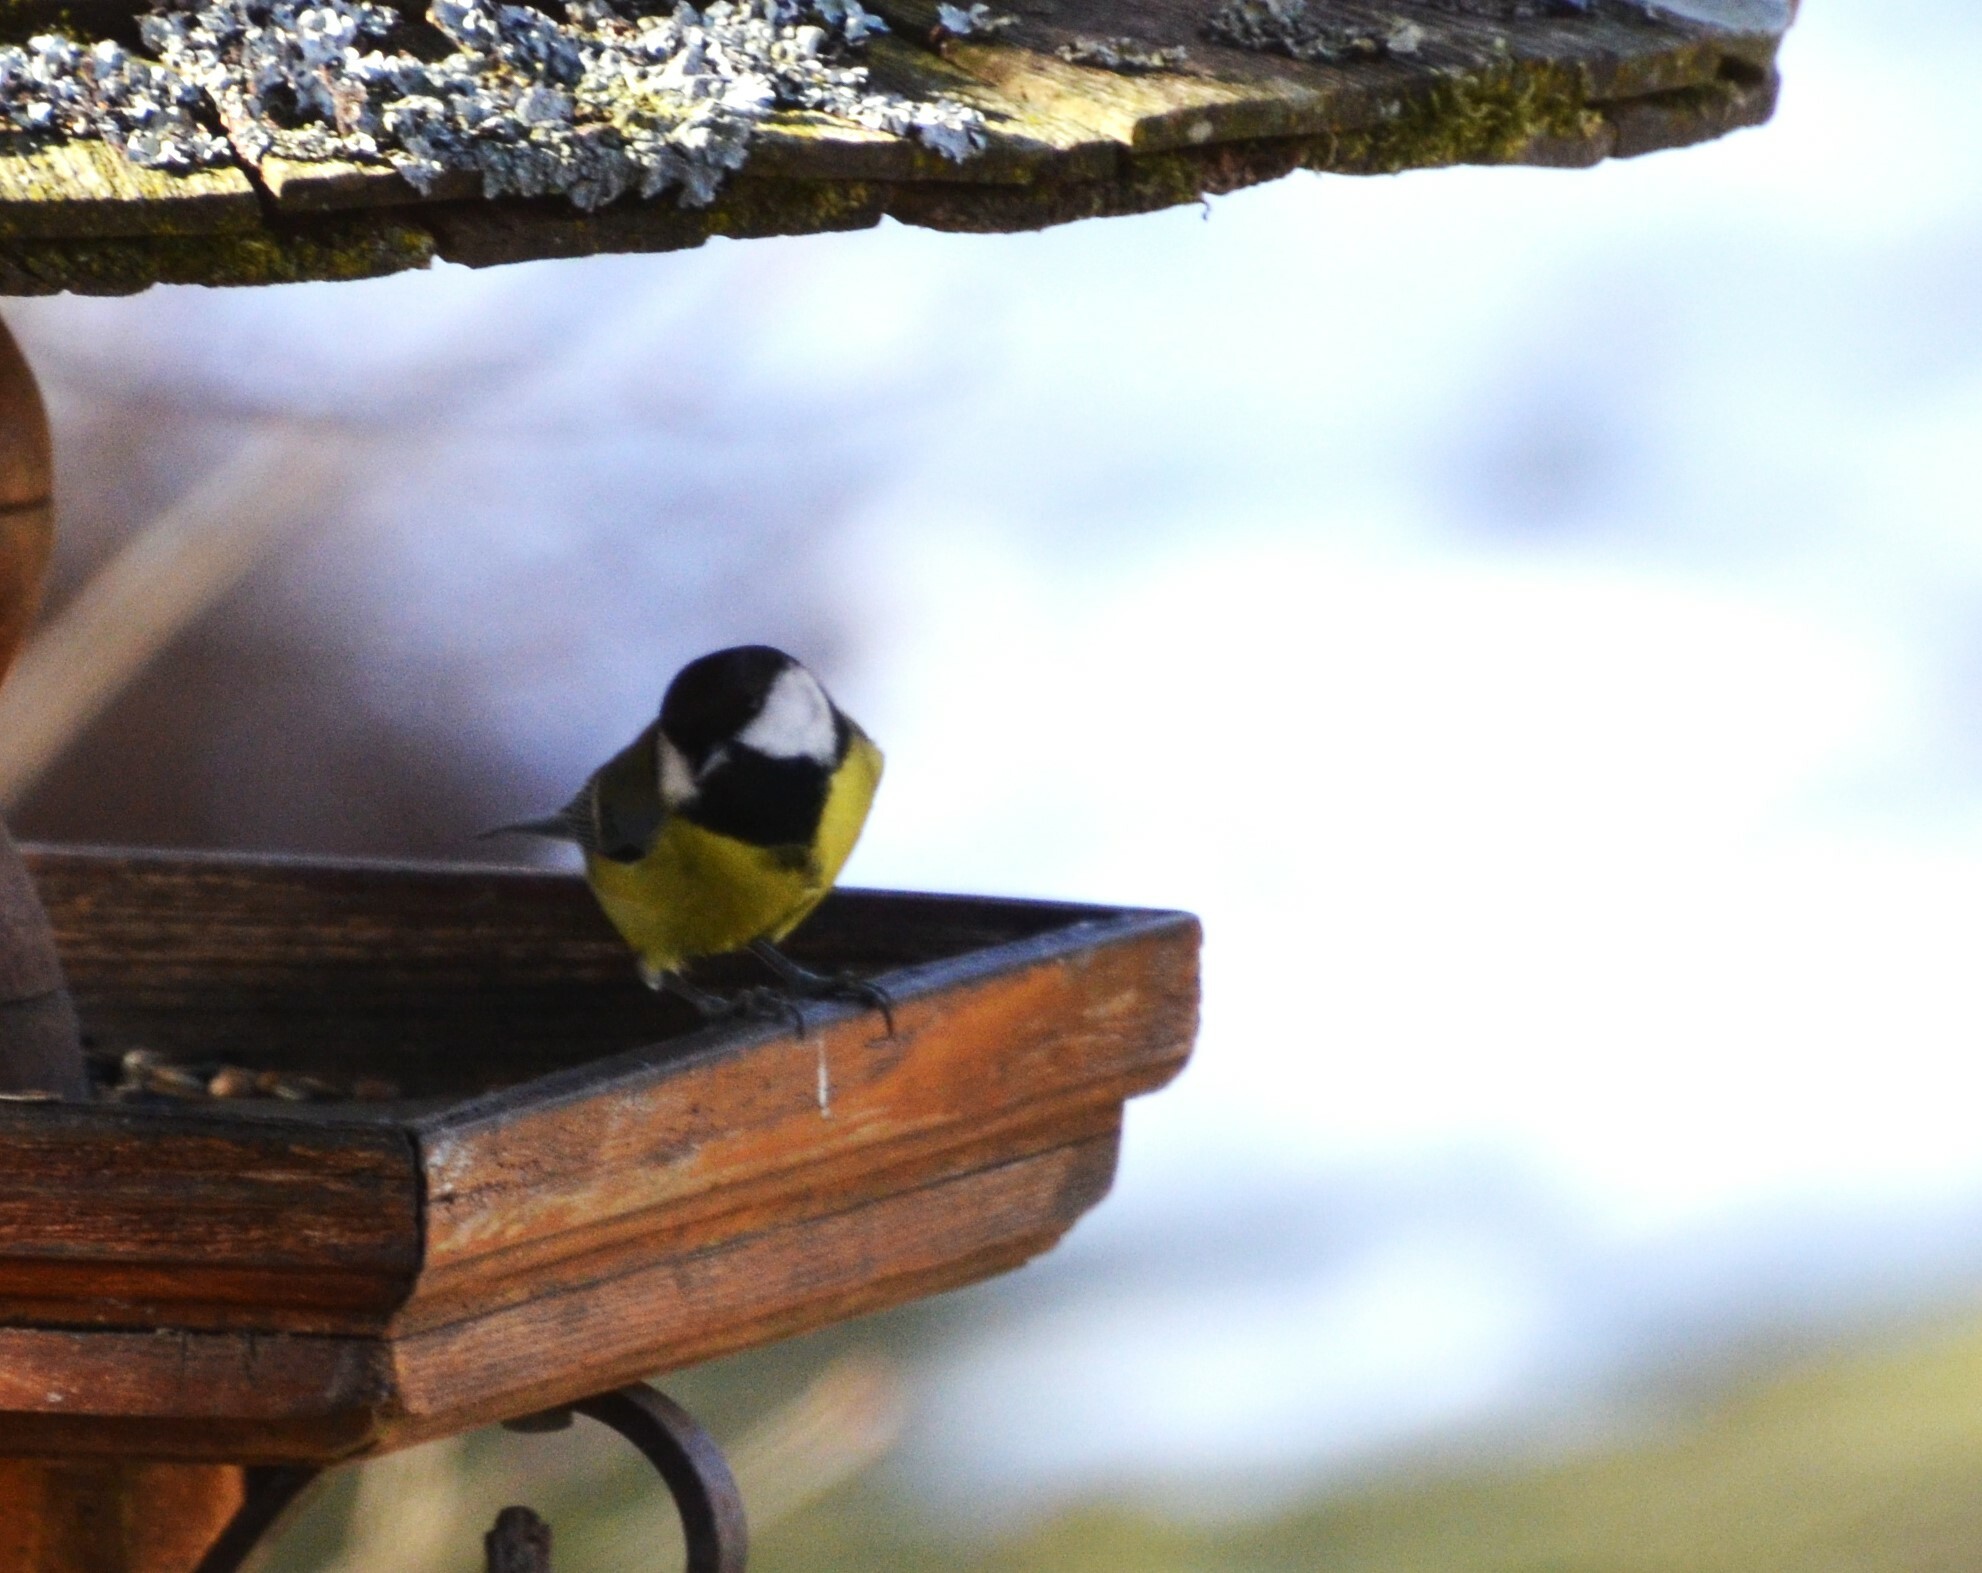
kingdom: Animalia
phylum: Chordata
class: Aves
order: Passeriformes
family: Paridae
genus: Parus
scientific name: Parus major
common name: Great tit
